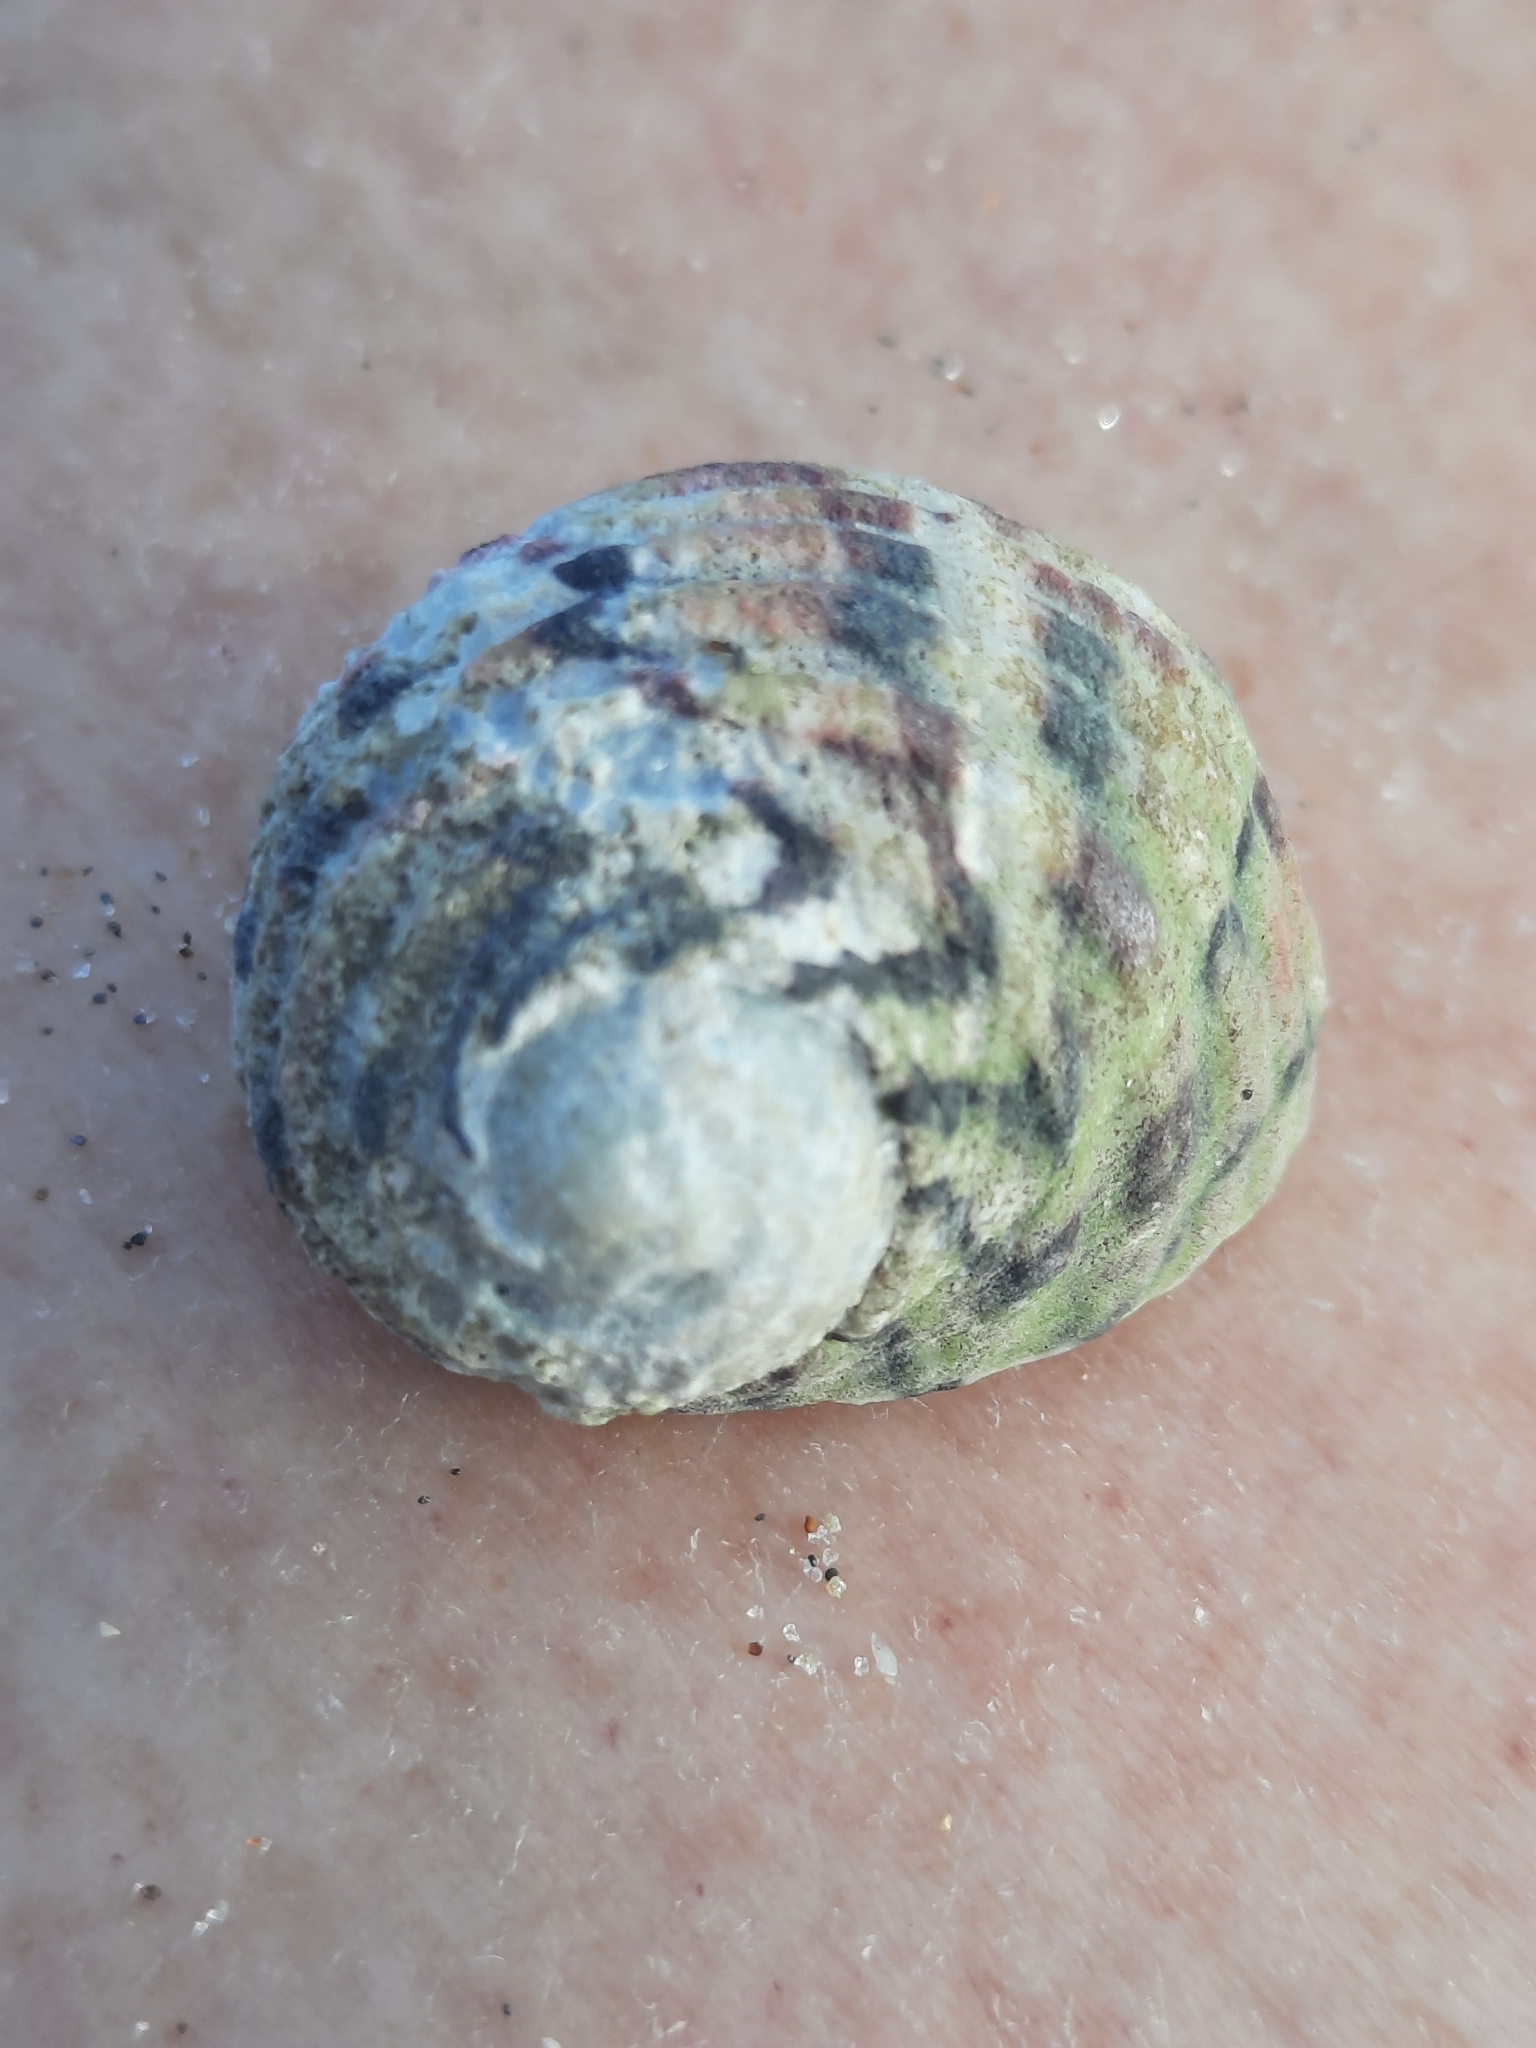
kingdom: Animalia
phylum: Mollusca
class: Gastropoda
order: Cycloneritida
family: Neritidae
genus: Nerita
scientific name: Nerita versicolor
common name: Four-tooth nerite
